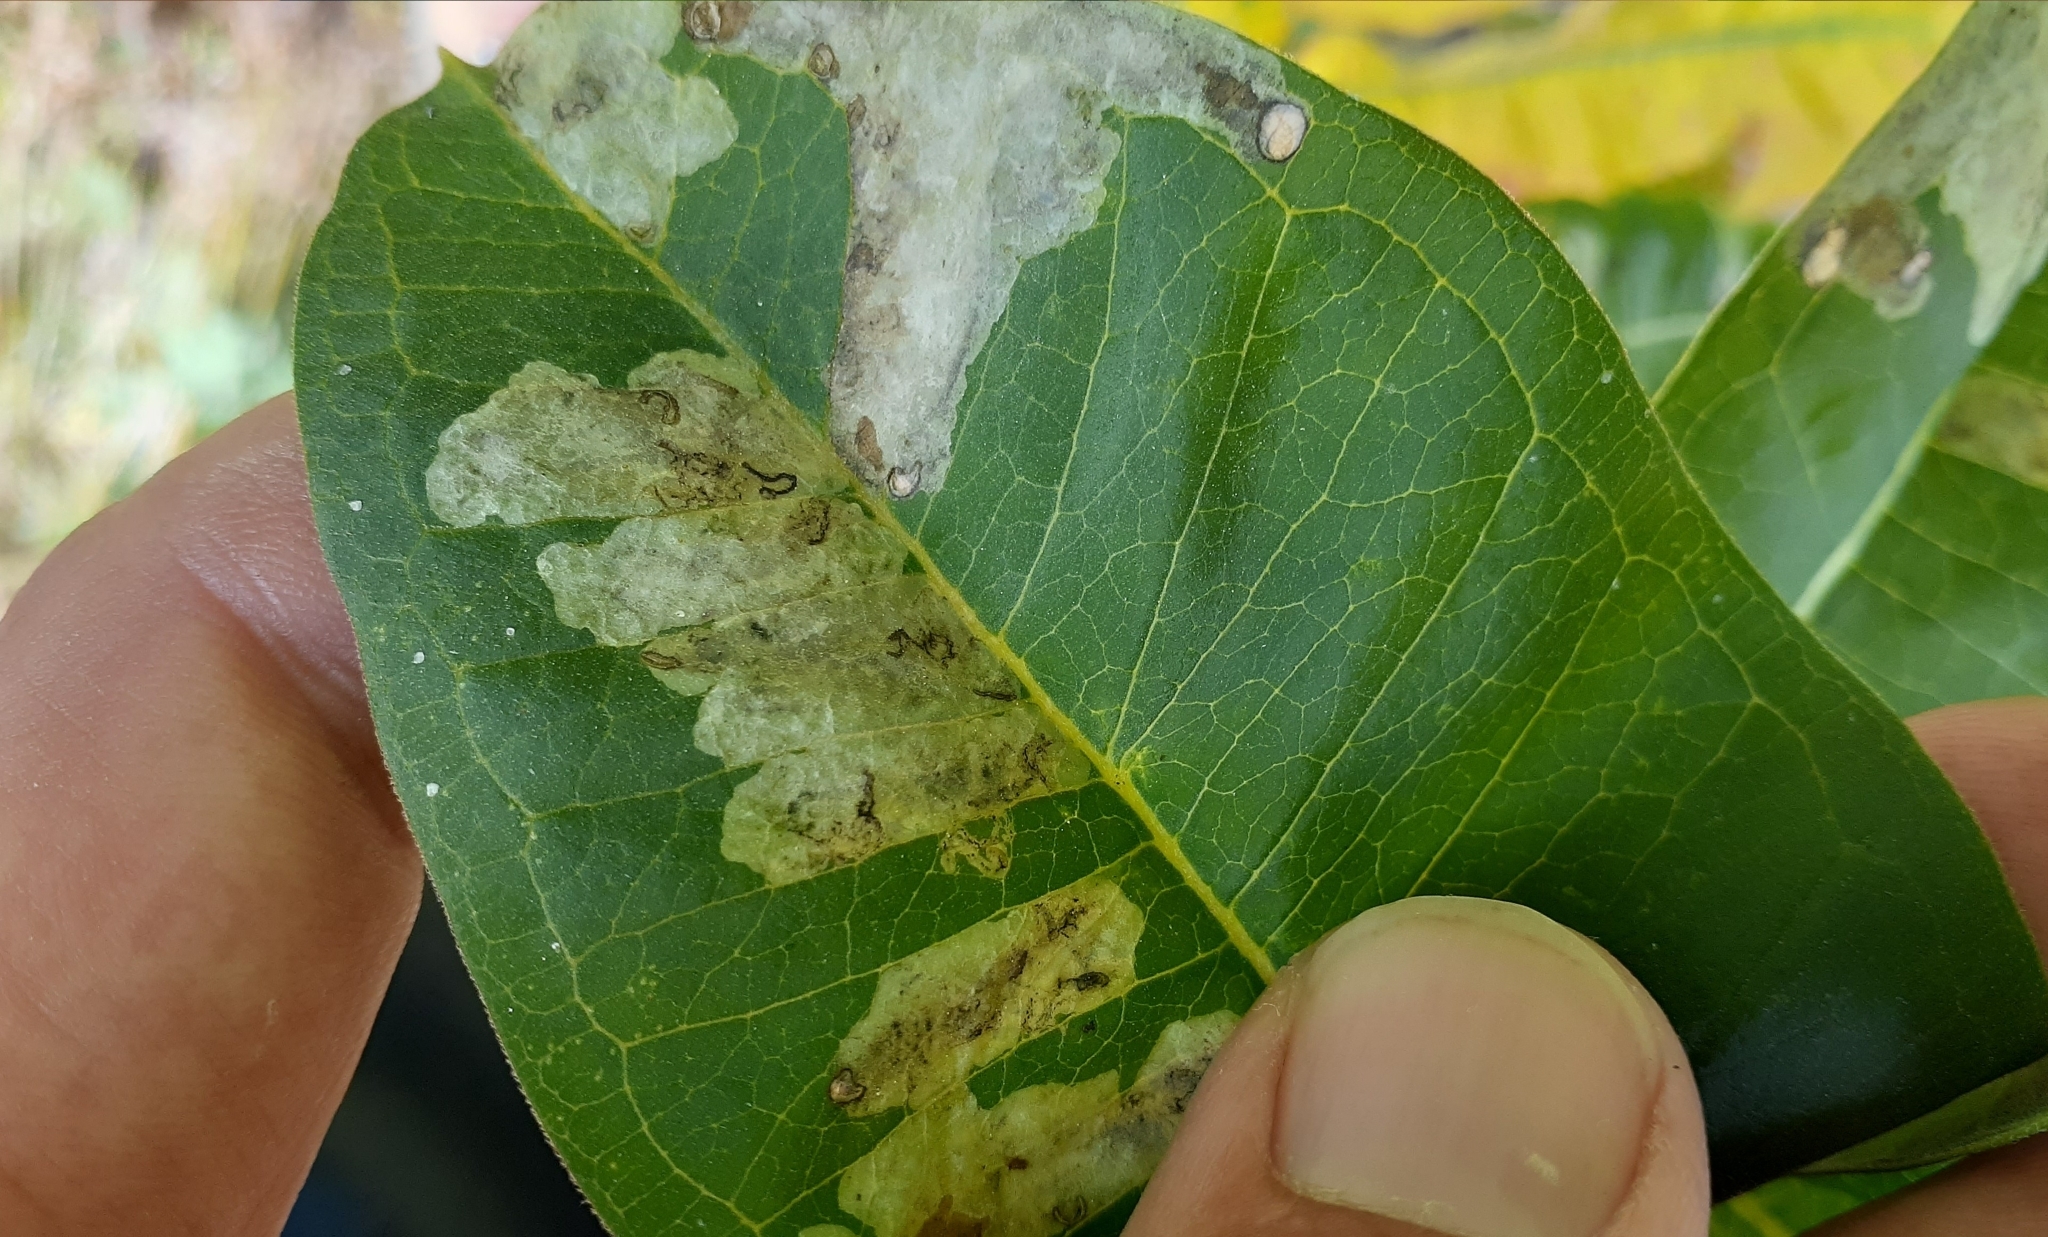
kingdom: Animalia
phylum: Arthropoda
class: Insecta
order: Diptera
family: Agromyzidae
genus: Liriomyza
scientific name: Liriomyza asclepiadis
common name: Milkweed leaf-miner fly
